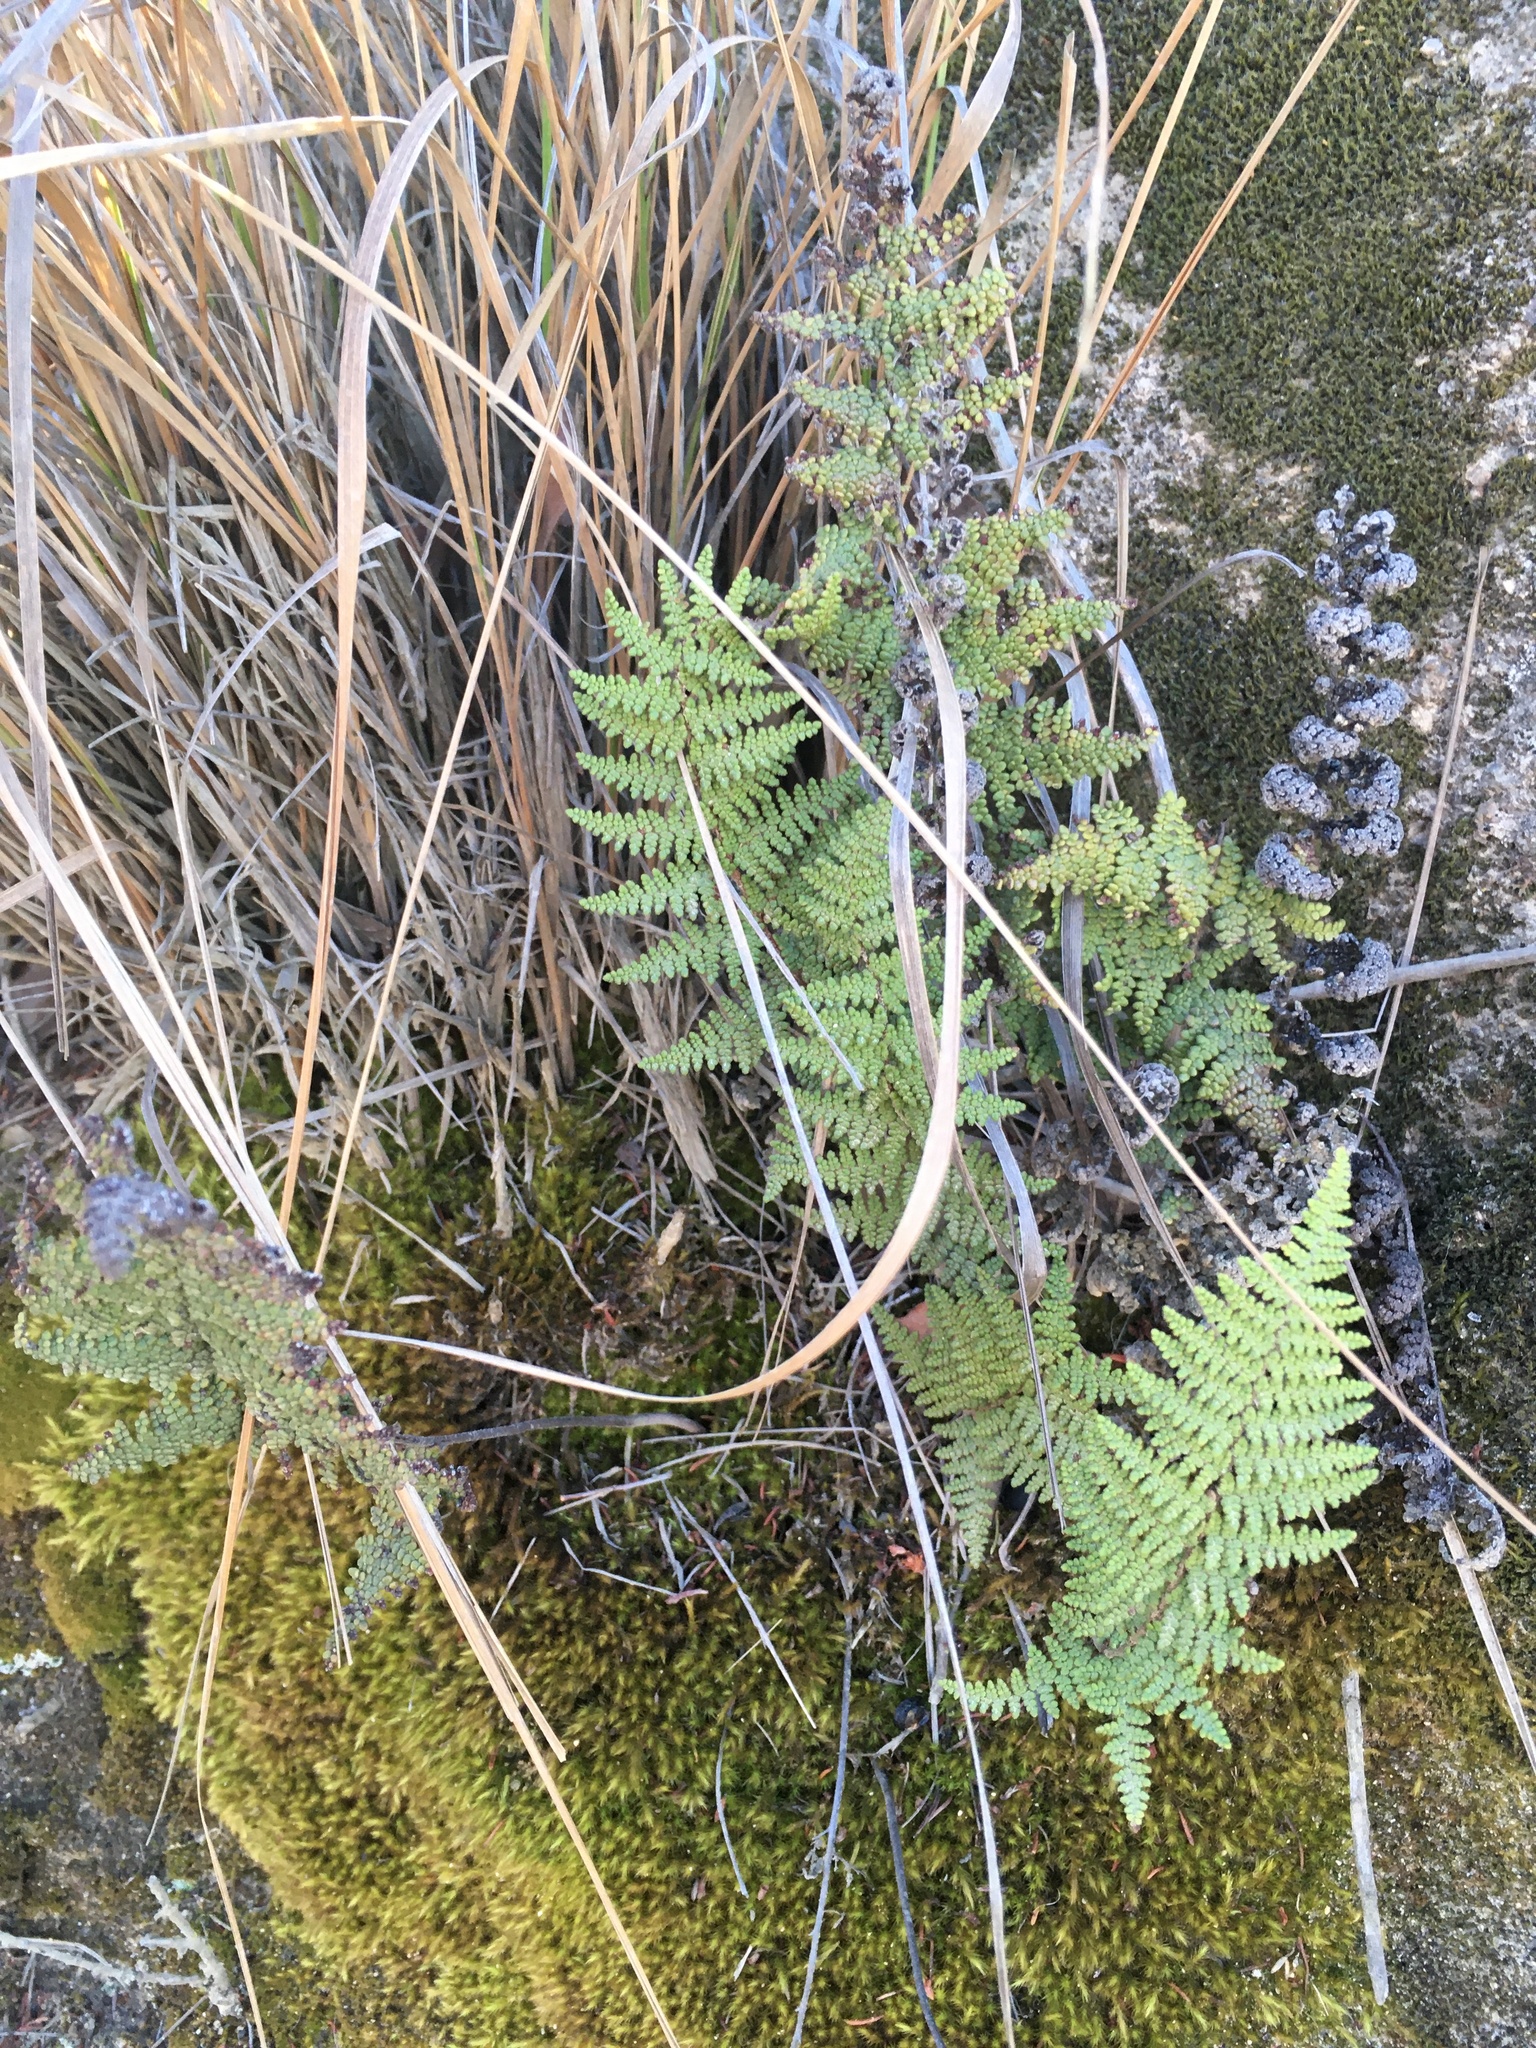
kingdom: Plantae
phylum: Tracheophyta
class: Polypodiopsida
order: Polypodiales
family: Pteridaceae
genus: Myriopteris
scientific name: Myriopteris clevelandii
